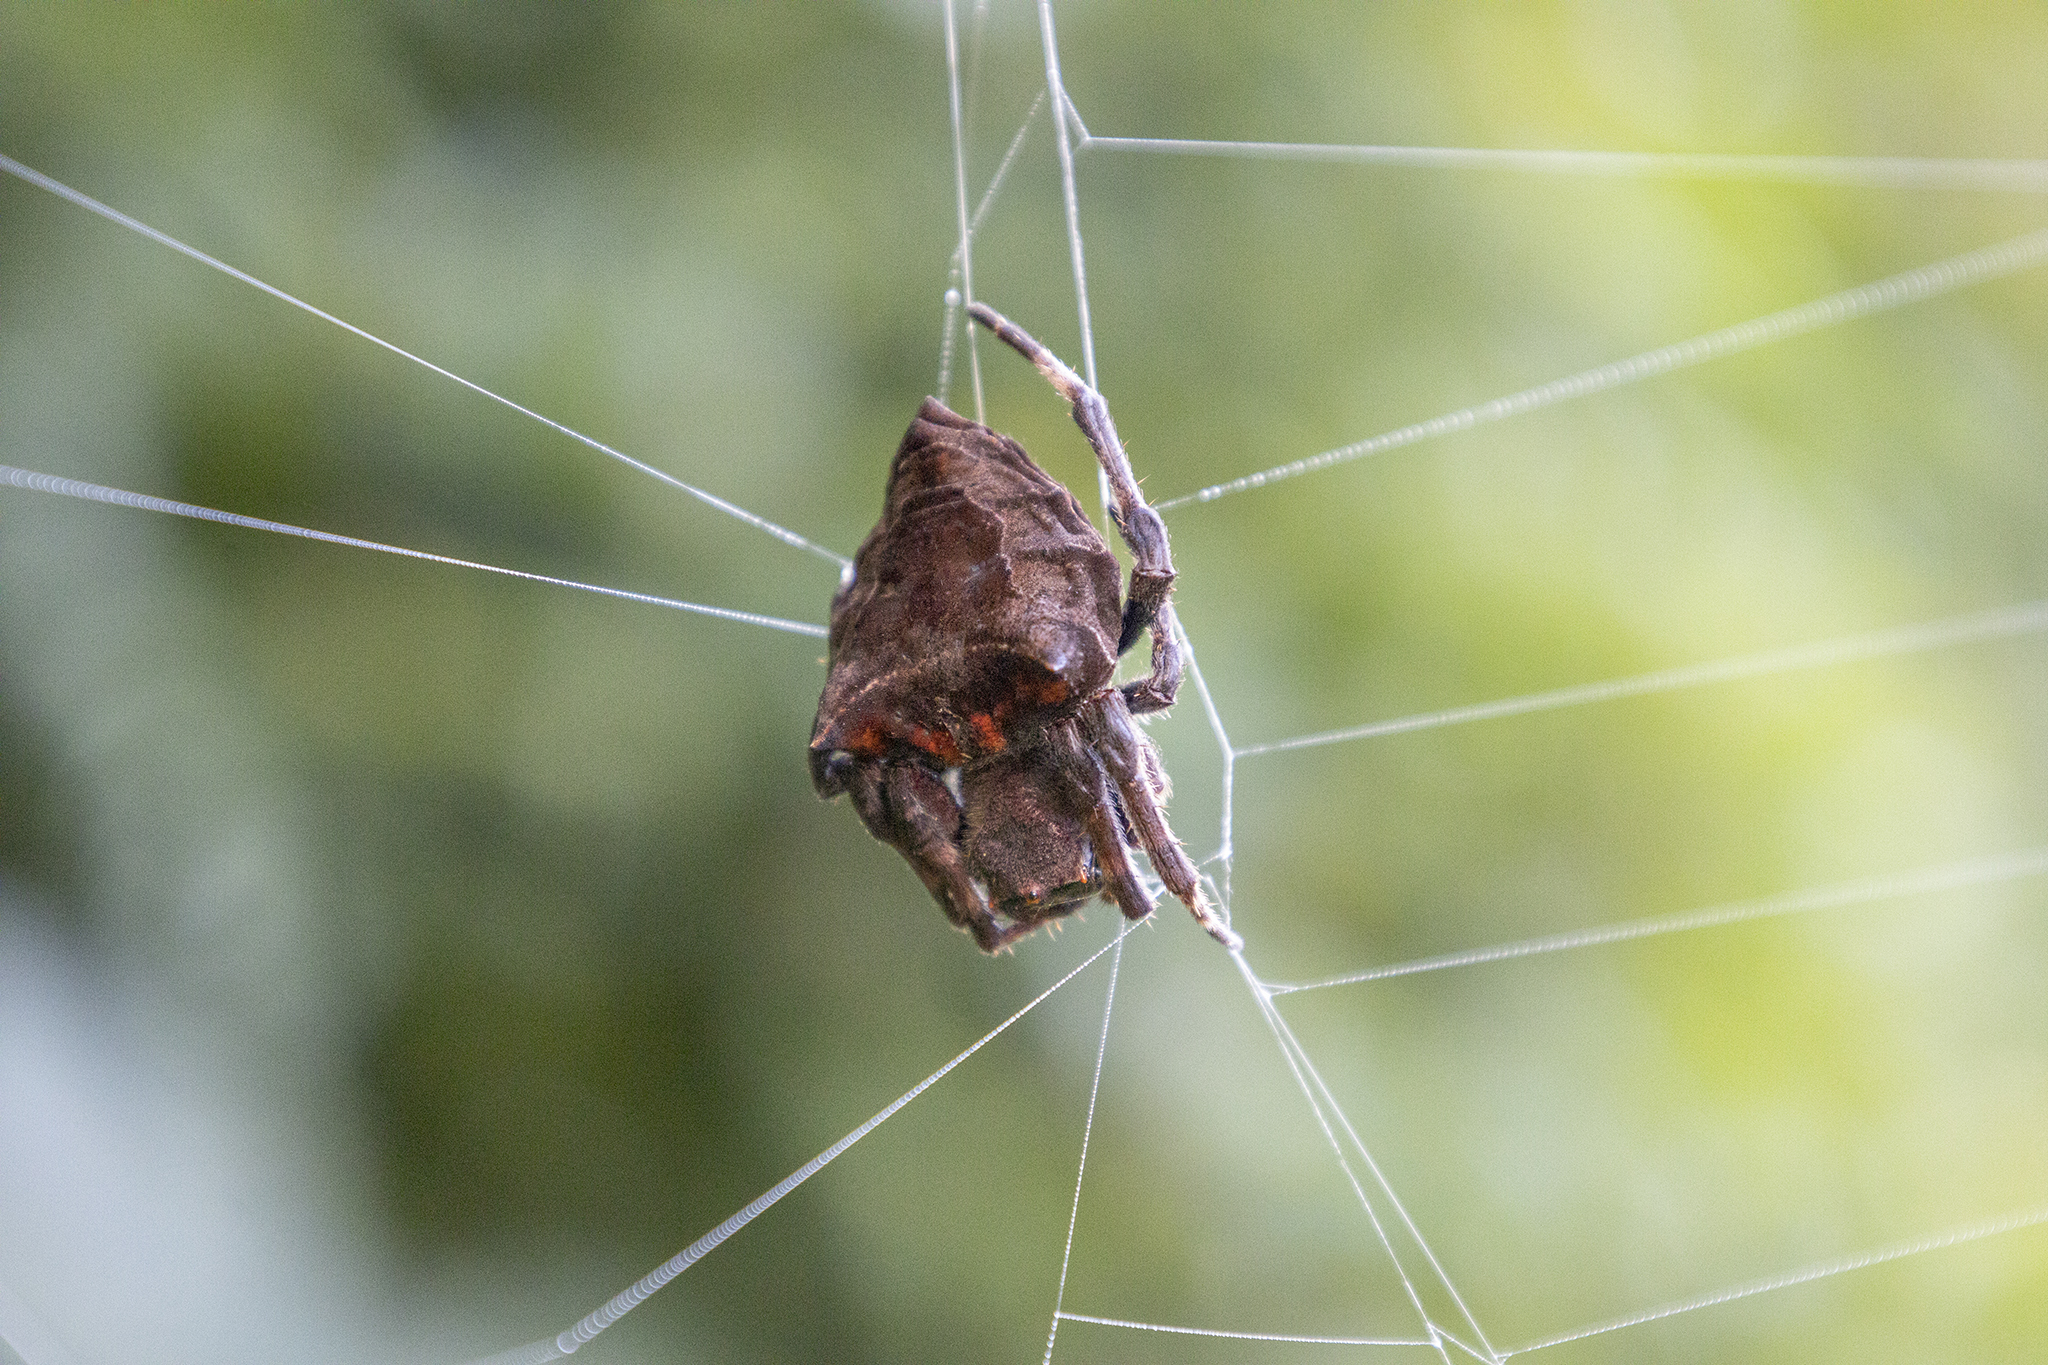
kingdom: Animalia
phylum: Arthropoda
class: Arachnida
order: Araneae
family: Araneidae
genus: Parawixia
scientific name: Parawixia dehaani
